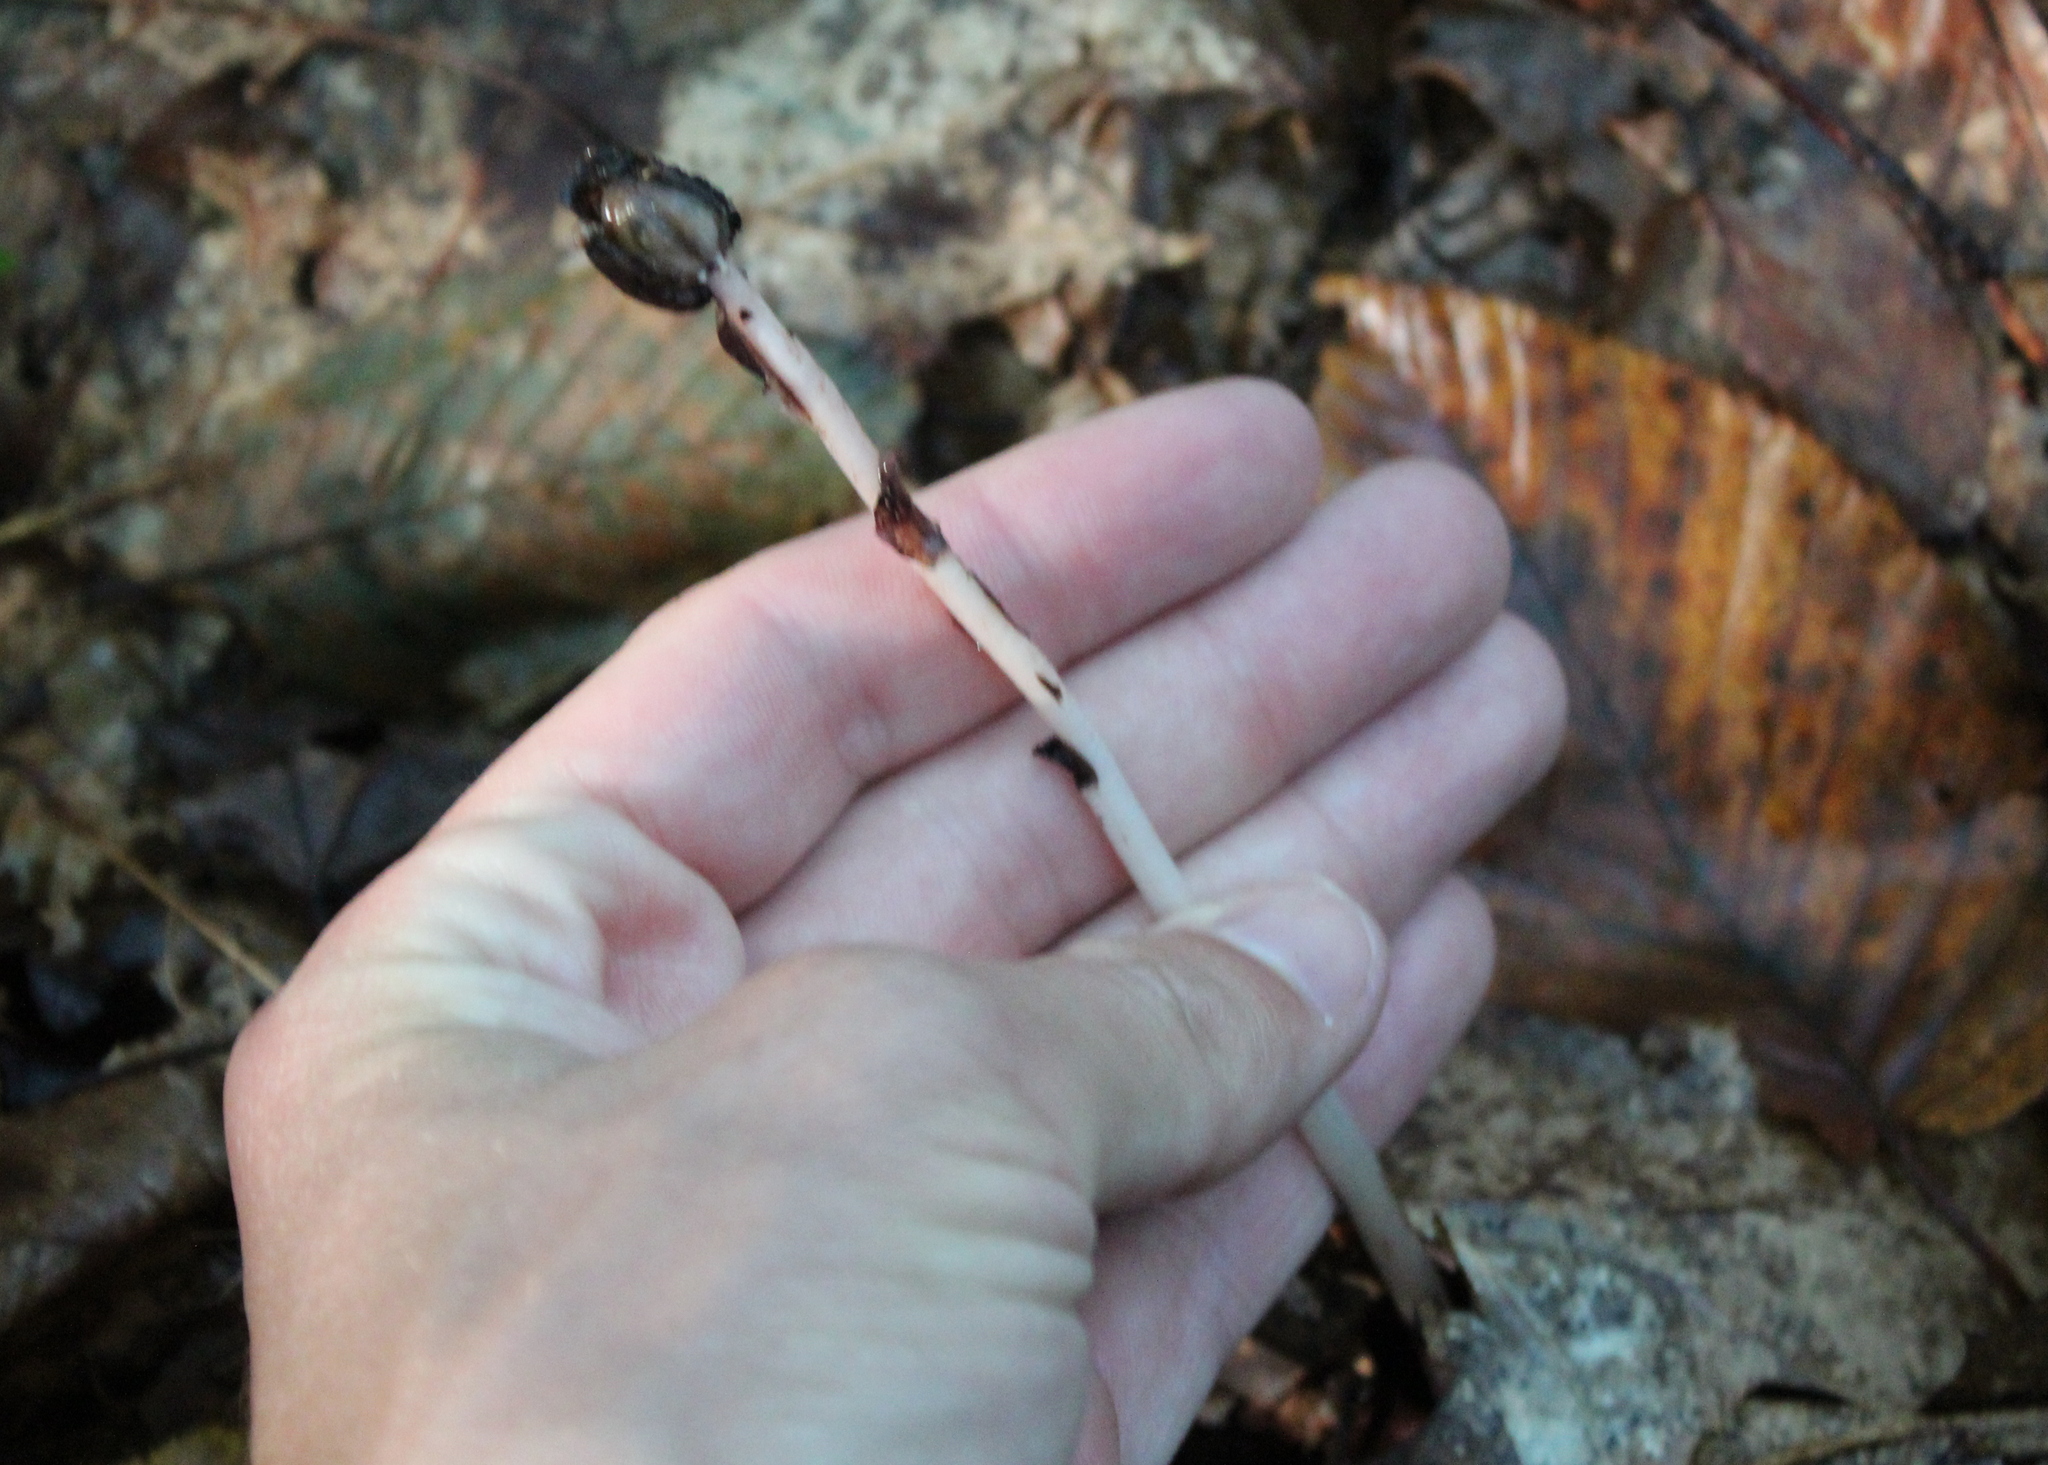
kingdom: Plantae
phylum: Tracheophyta
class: Magnoliopsida
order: Ericales
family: Ericaceae
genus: Monotropa
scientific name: Monotropa uniflora
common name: Convulsion root
